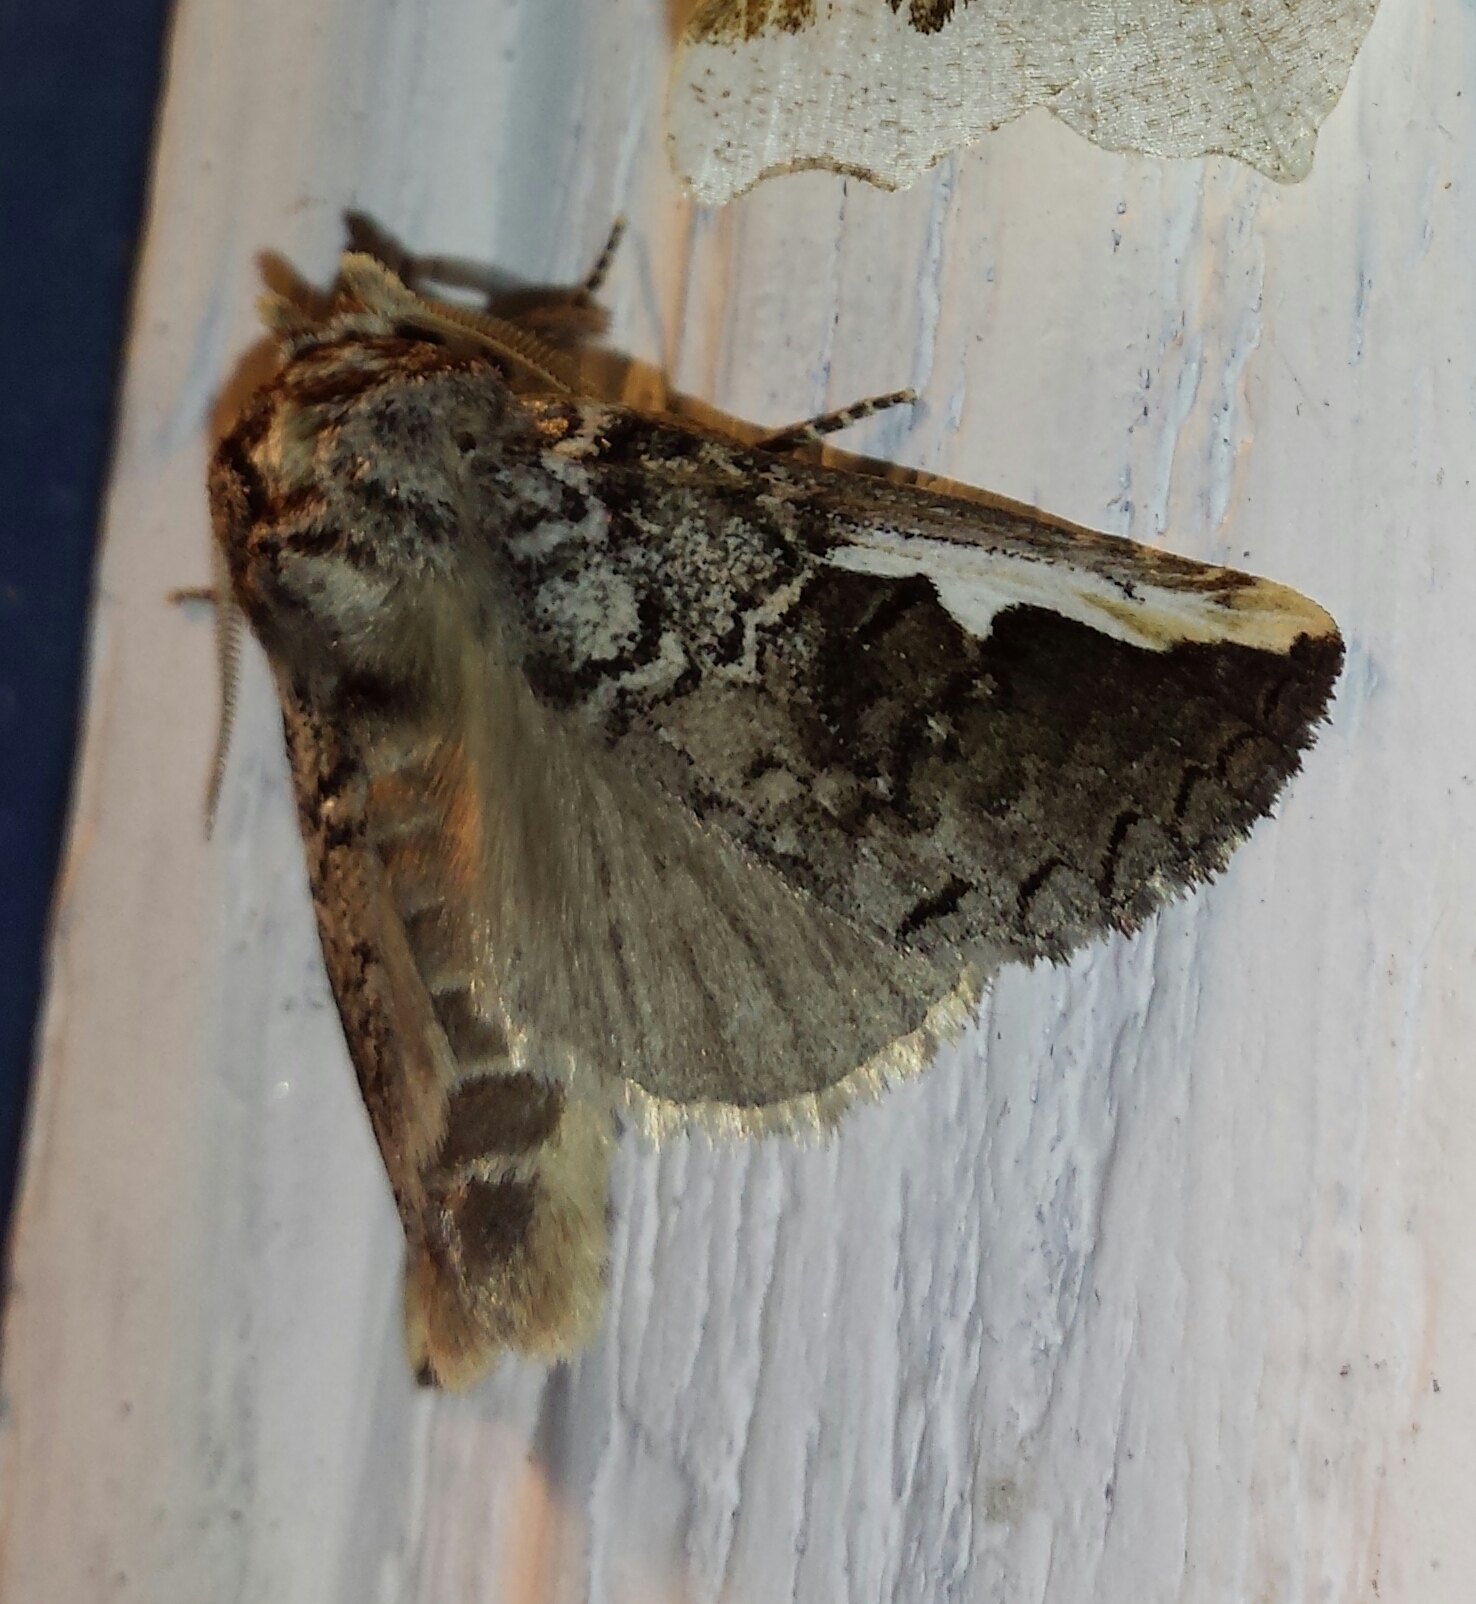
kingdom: Animalia
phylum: Arthropoda
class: Insecta
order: Lepidoptera
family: Notodontidae
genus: Symmerista
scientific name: Symmerista albifrons
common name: White-headed prominent
